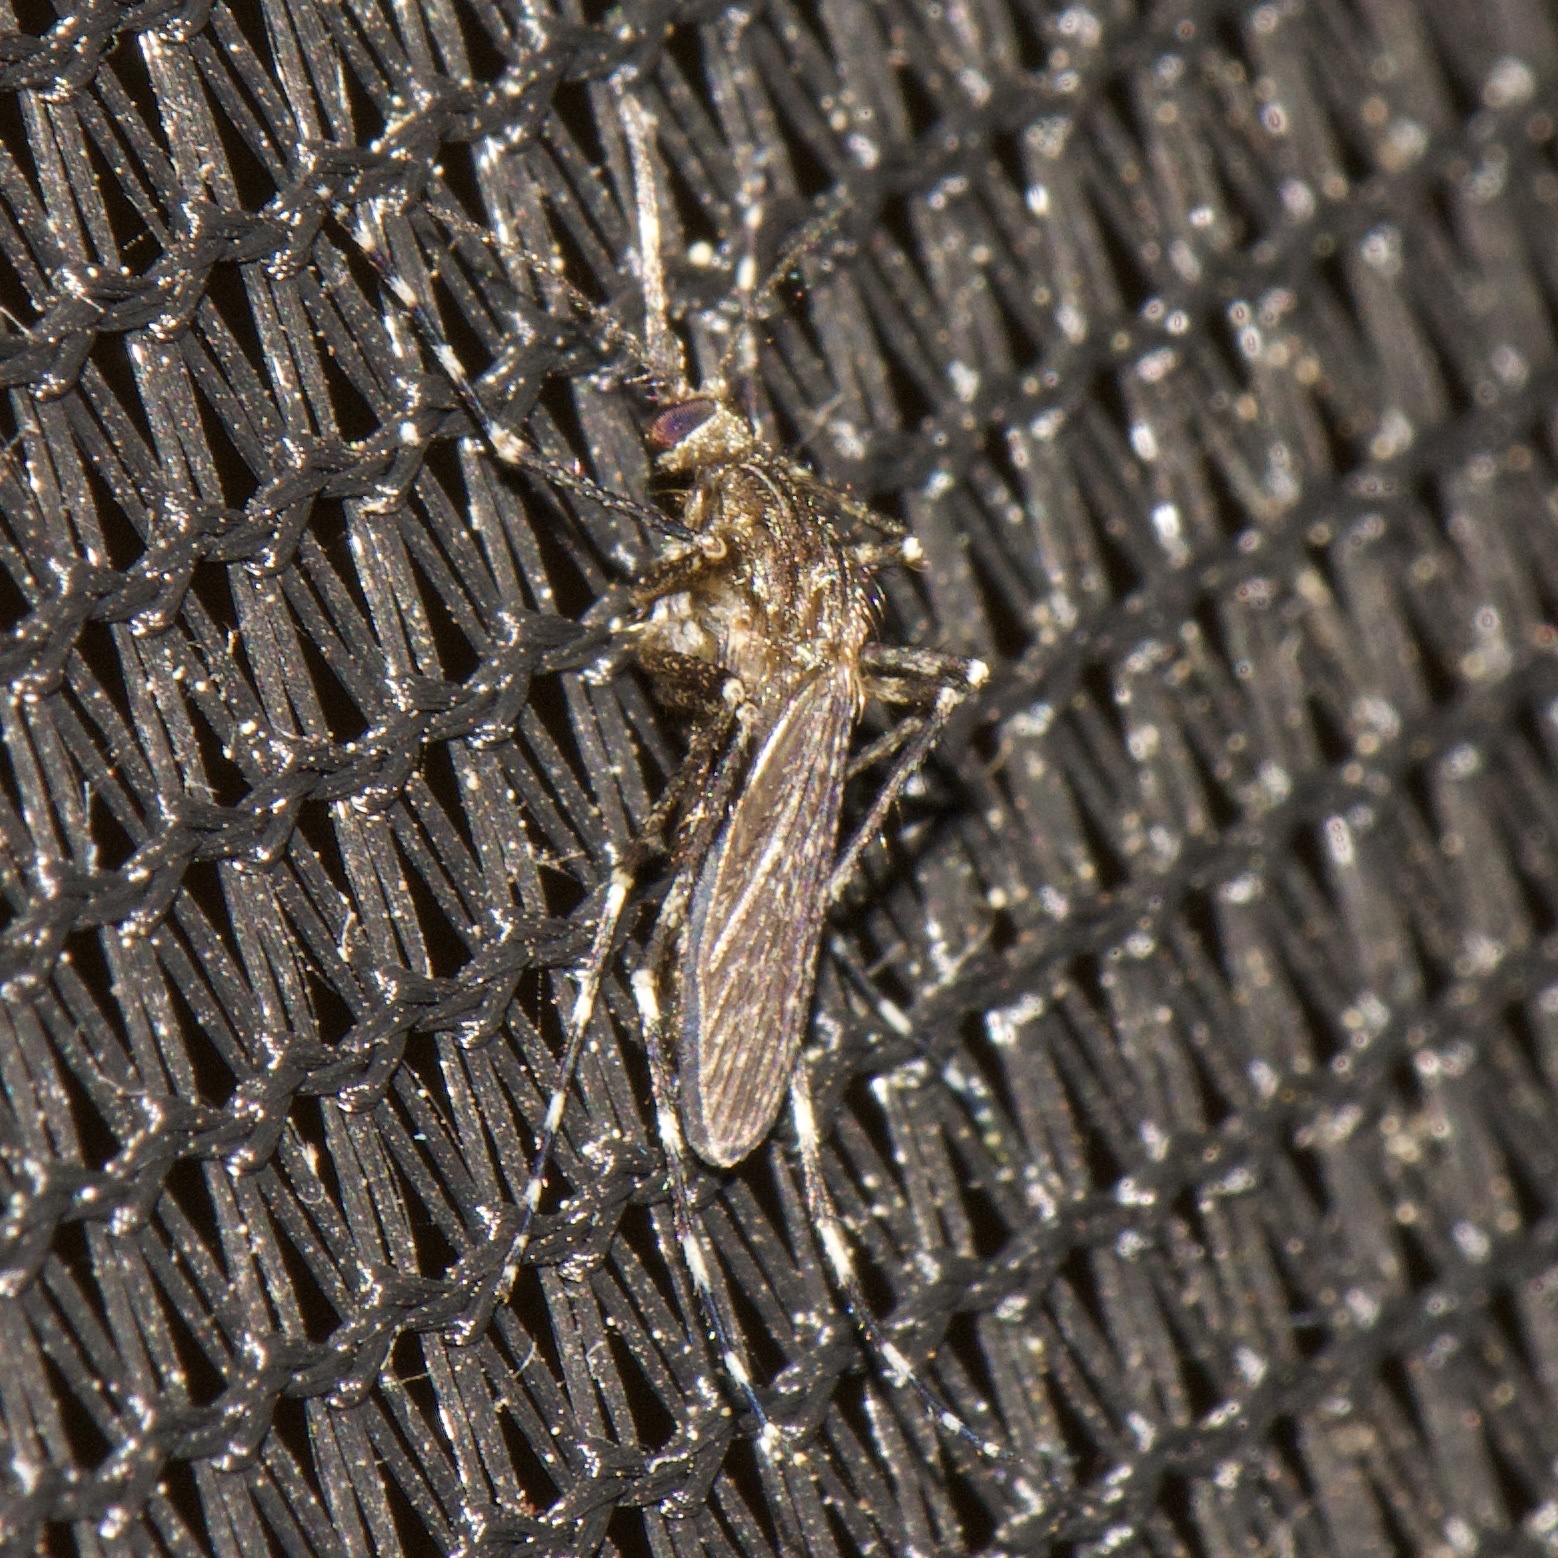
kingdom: Animalia
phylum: Arthropoda
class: Insecta
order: Diptera
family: Culicidae
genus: Coquillettidia
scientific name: Coquillettidia perturbans
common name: Cattail mosquito
